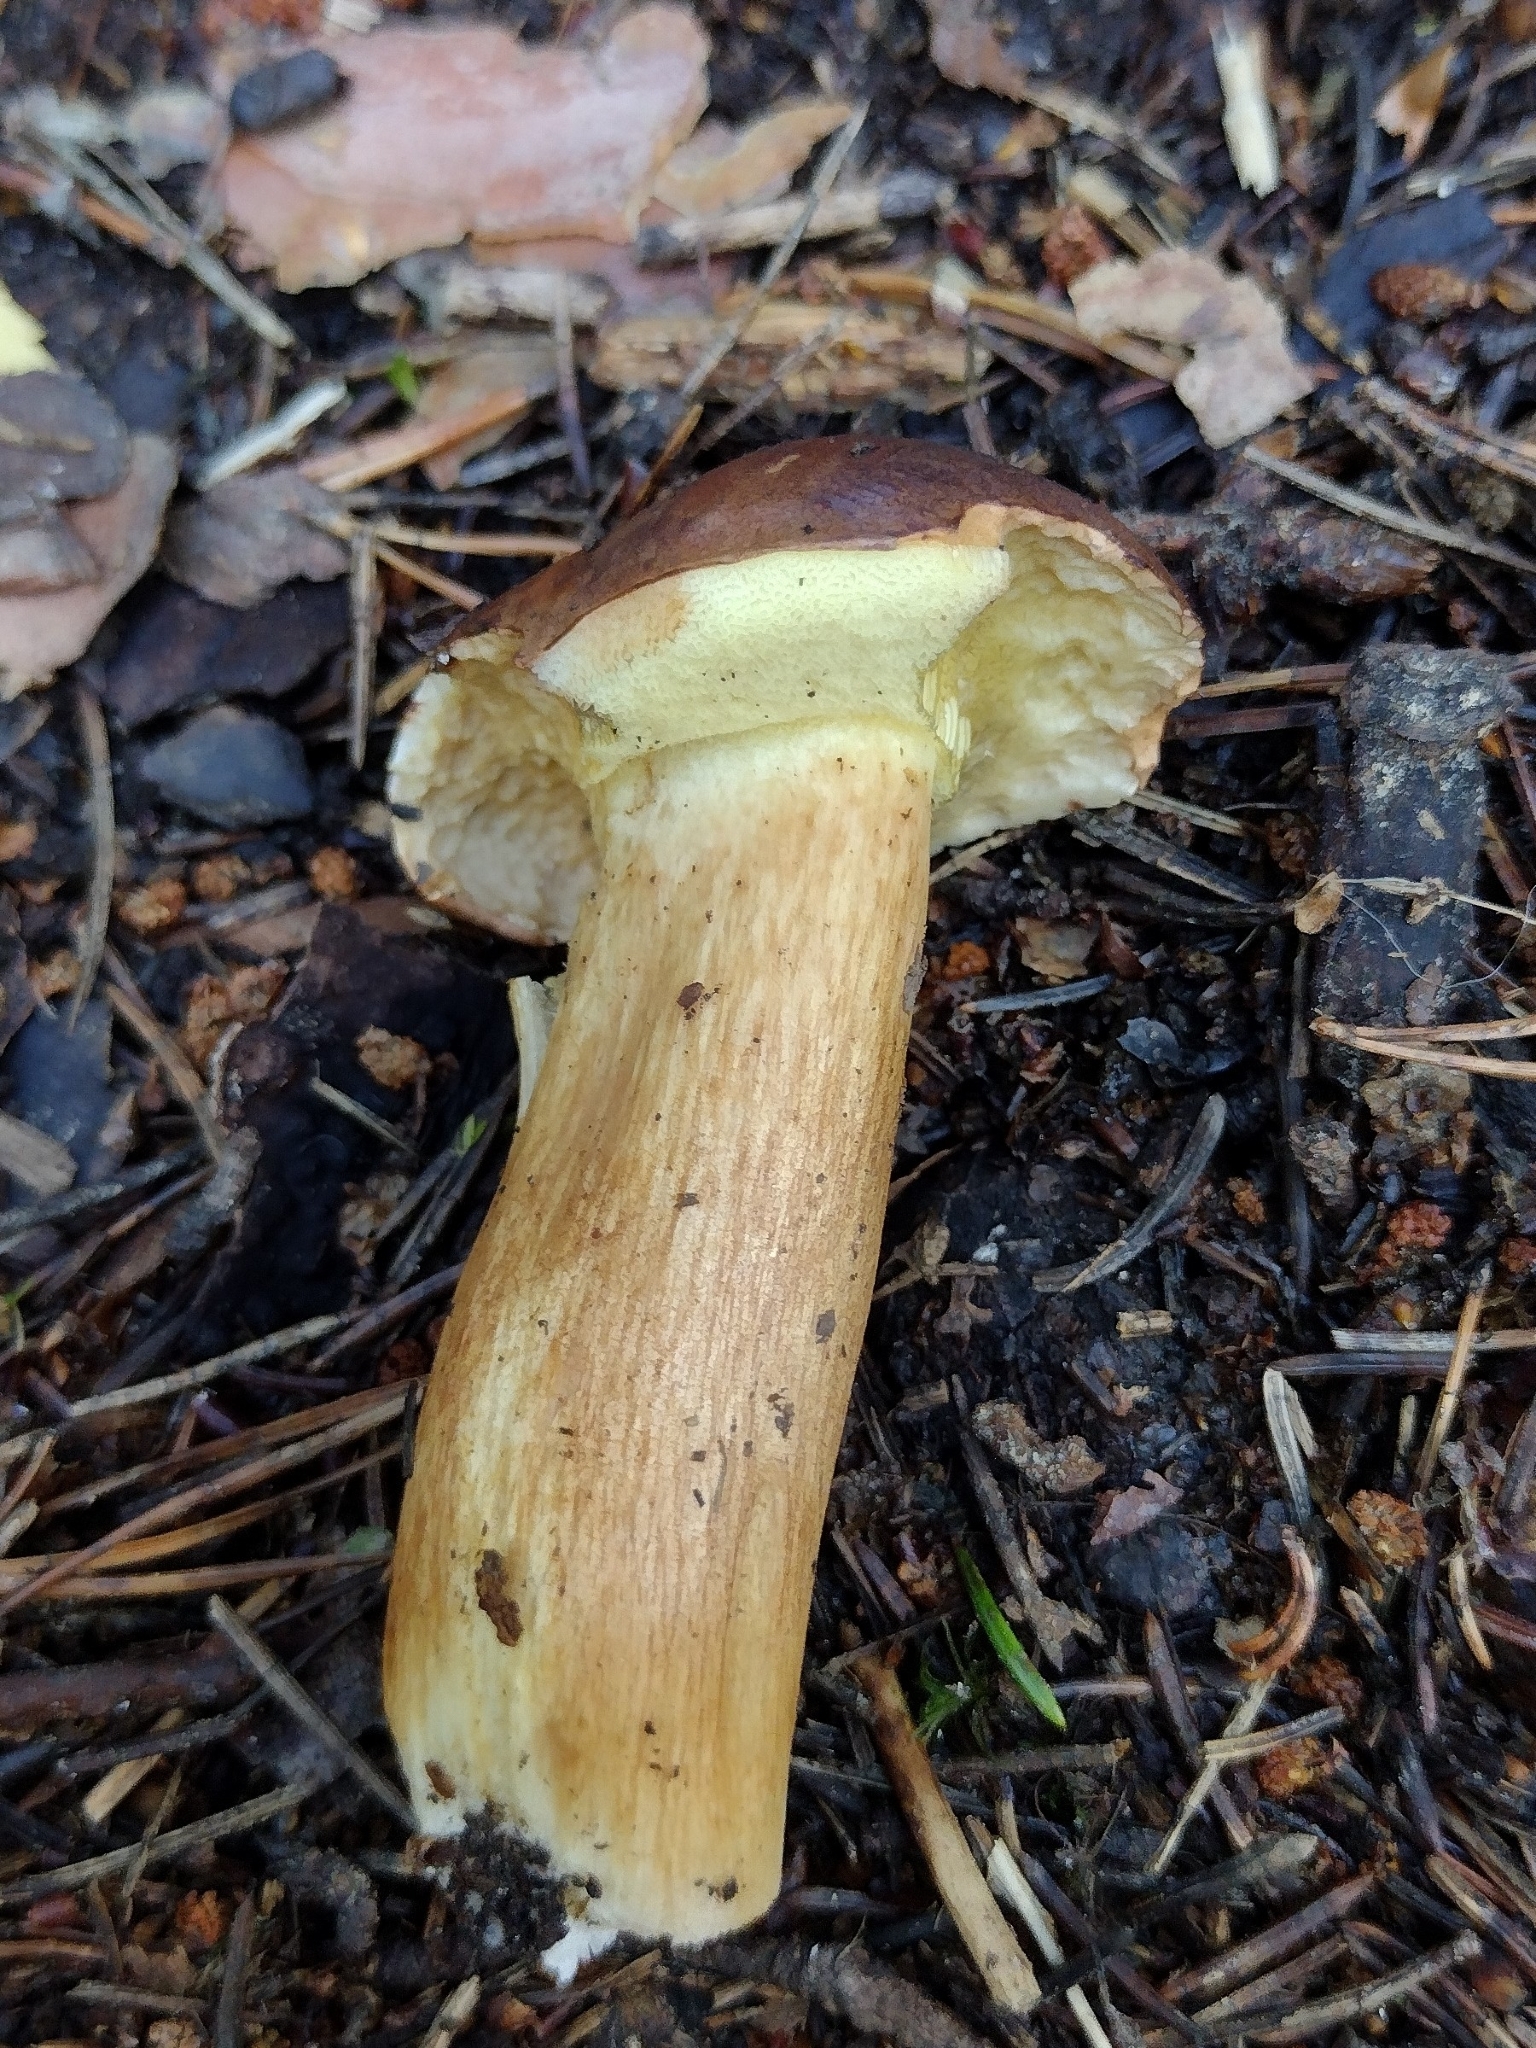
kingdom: Fungi
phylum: Basidiomycota
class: Agaricomycetes
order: Boletales
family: Boletaceae
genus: Imleria
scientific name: Imleria badia
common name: Bay bolete
